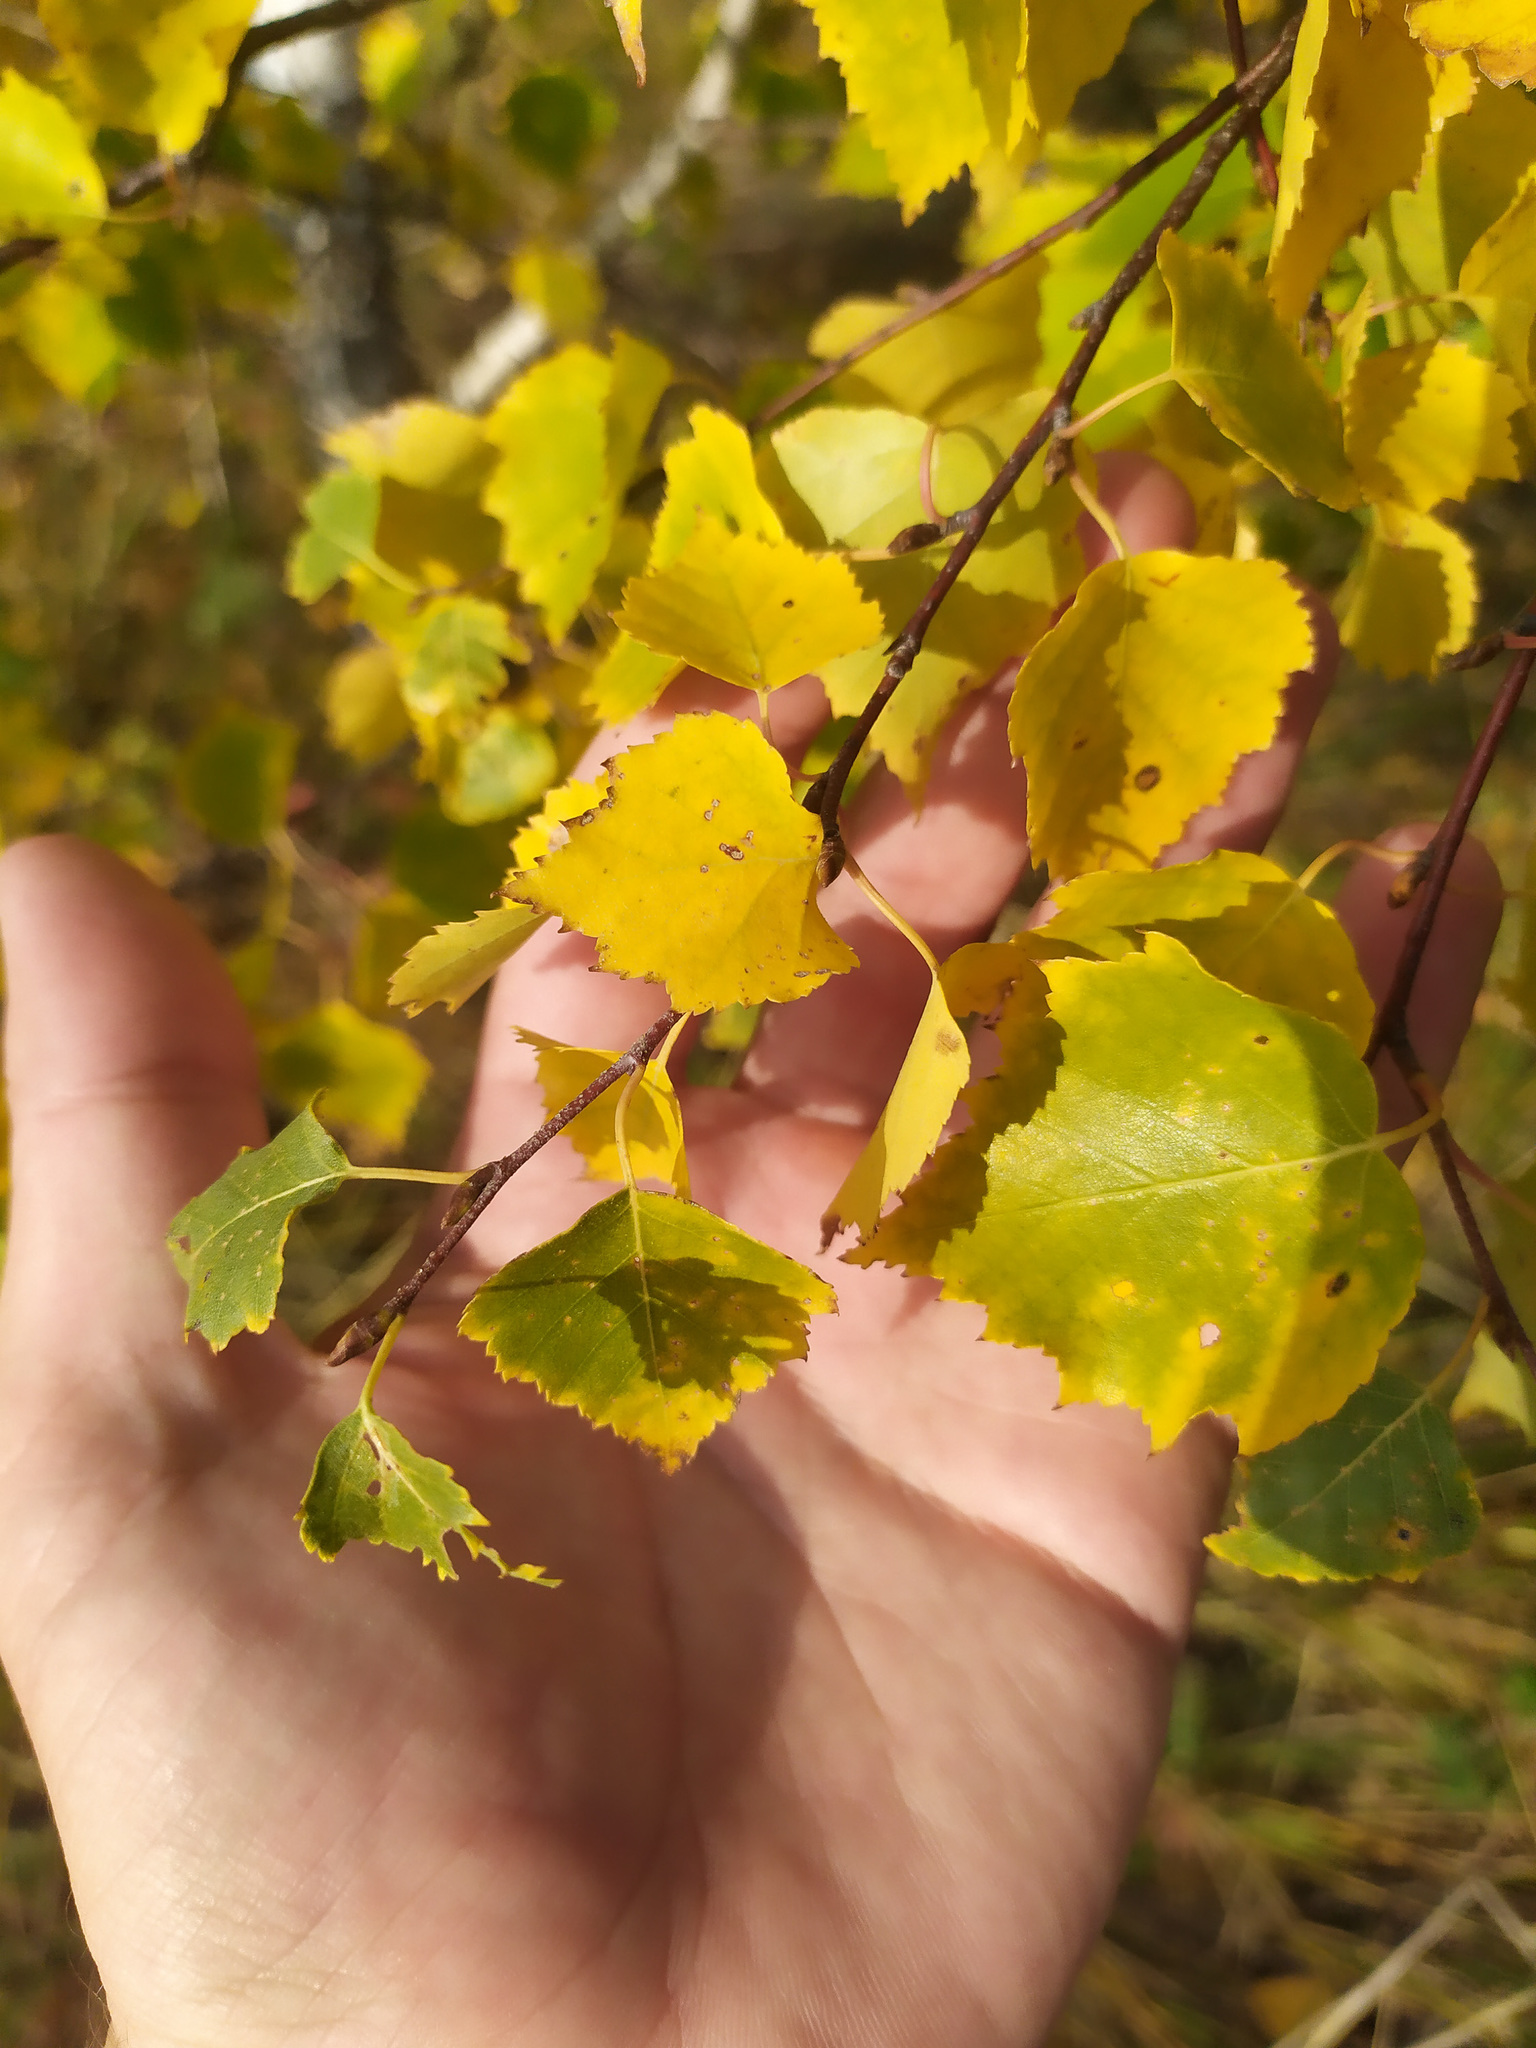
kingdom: Plantae
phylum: Tracheophyta
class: Magnoliopsida
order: Fagales
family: Betulaceae
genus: Betula
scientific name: Betula pendula
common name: Silver birch
